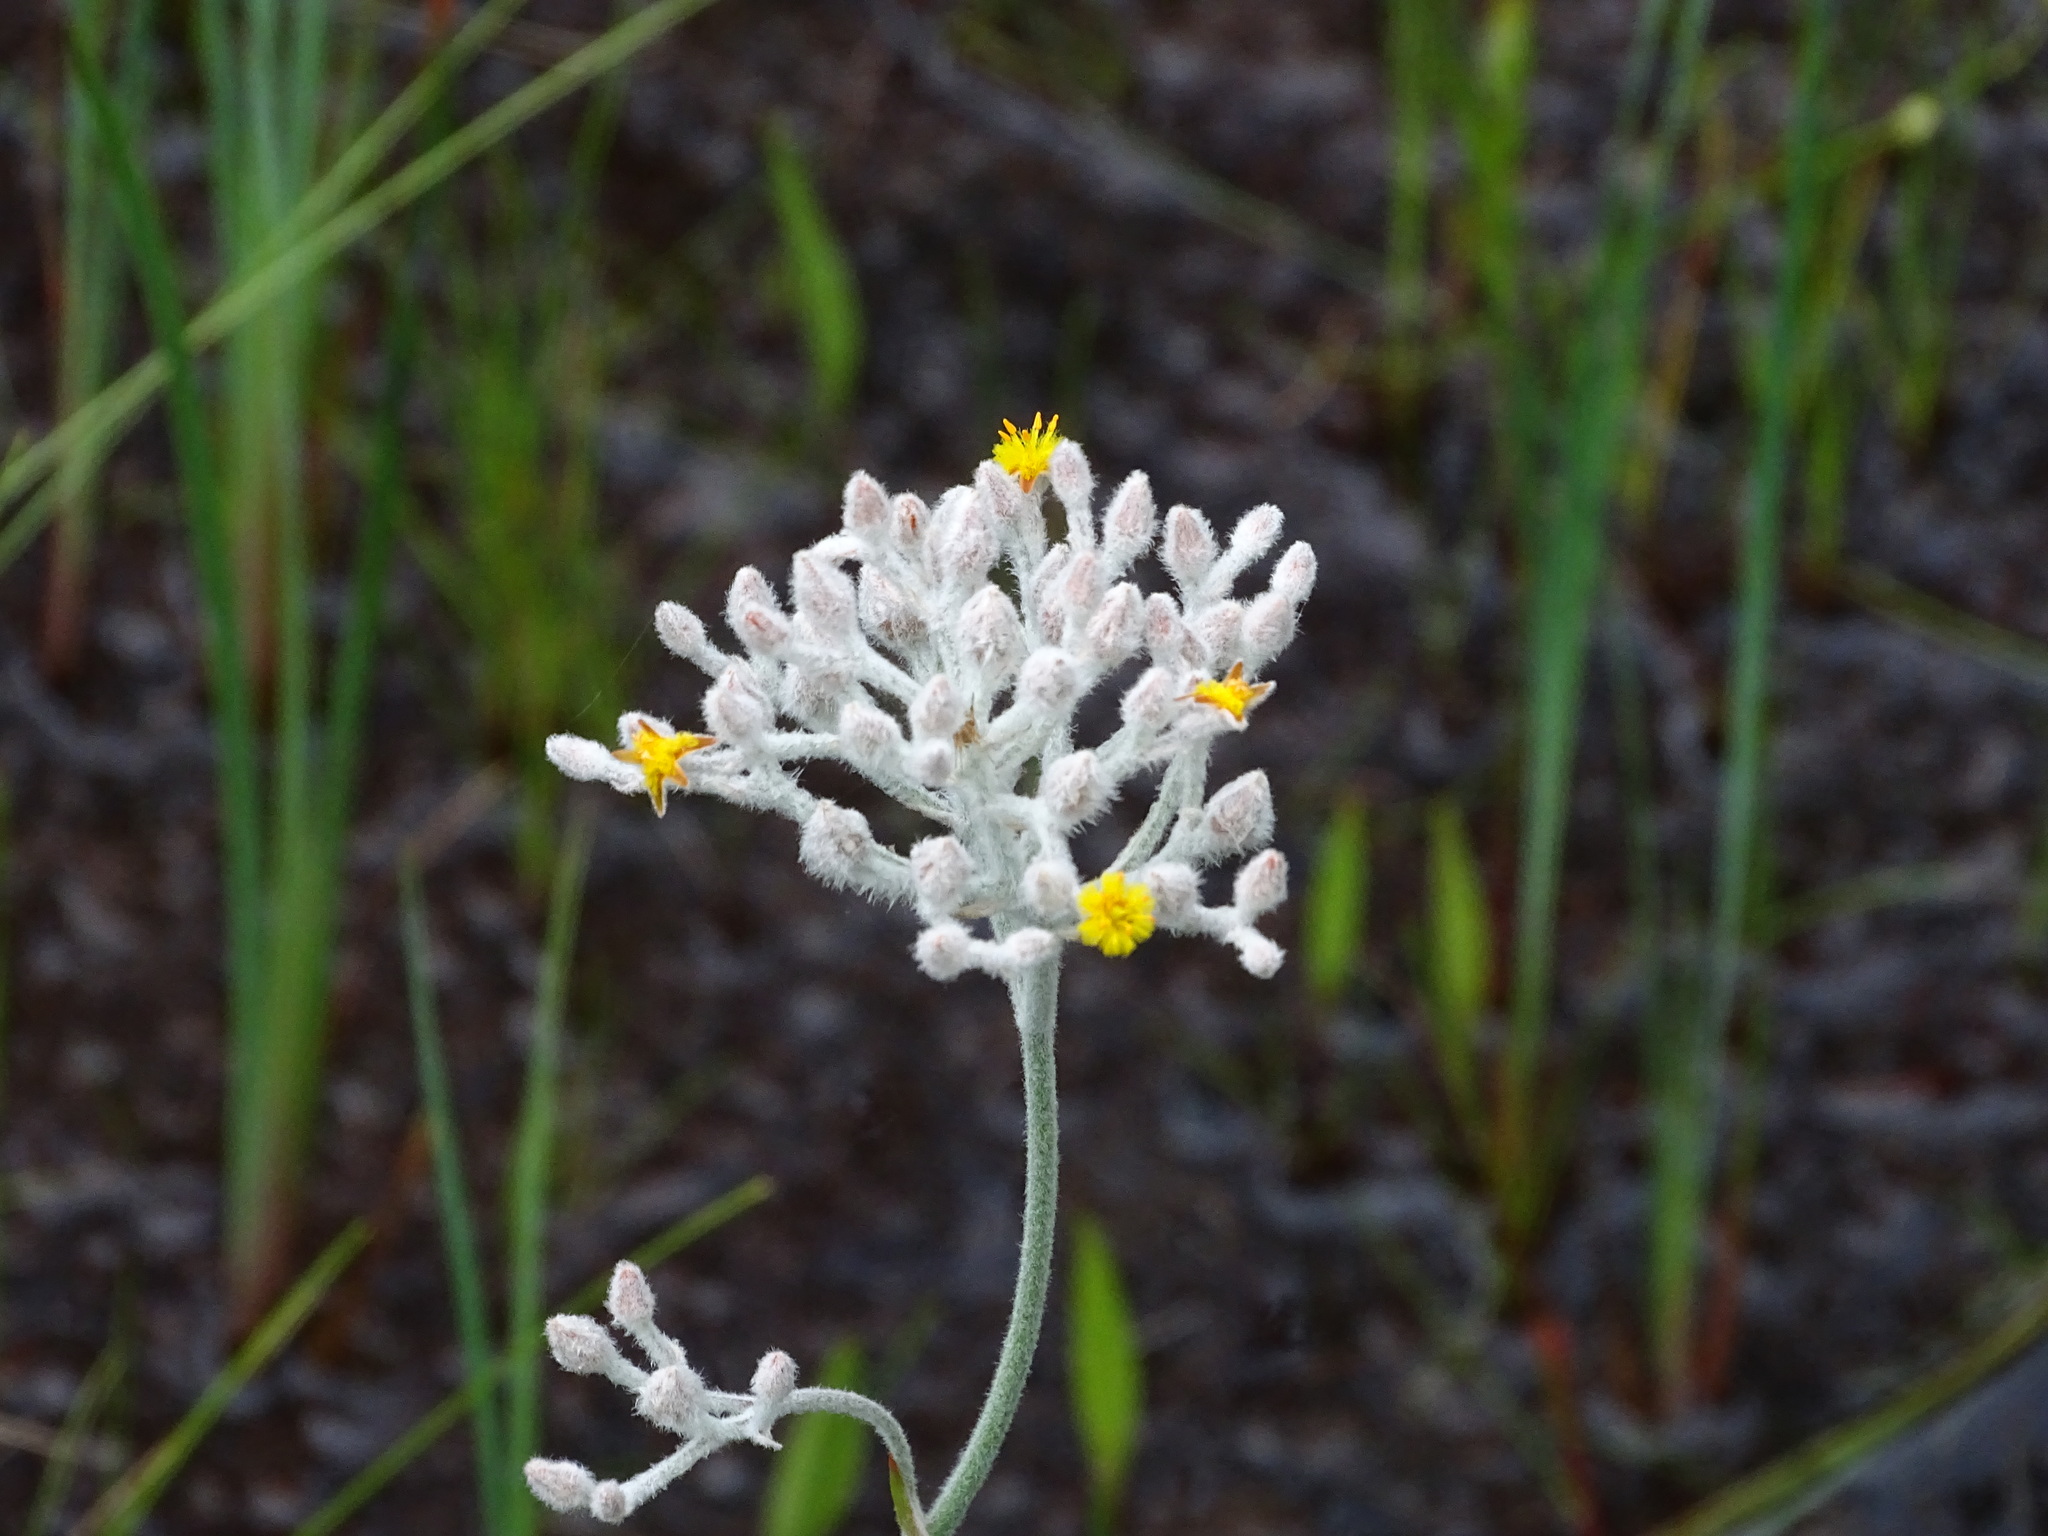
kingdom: Plantae
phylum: Tracheophyta
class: Liliopsida
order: Dioscoreales
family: Nartheciaceae
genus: Lophiola
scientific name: Lophiola aurea
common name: Golden-crest
